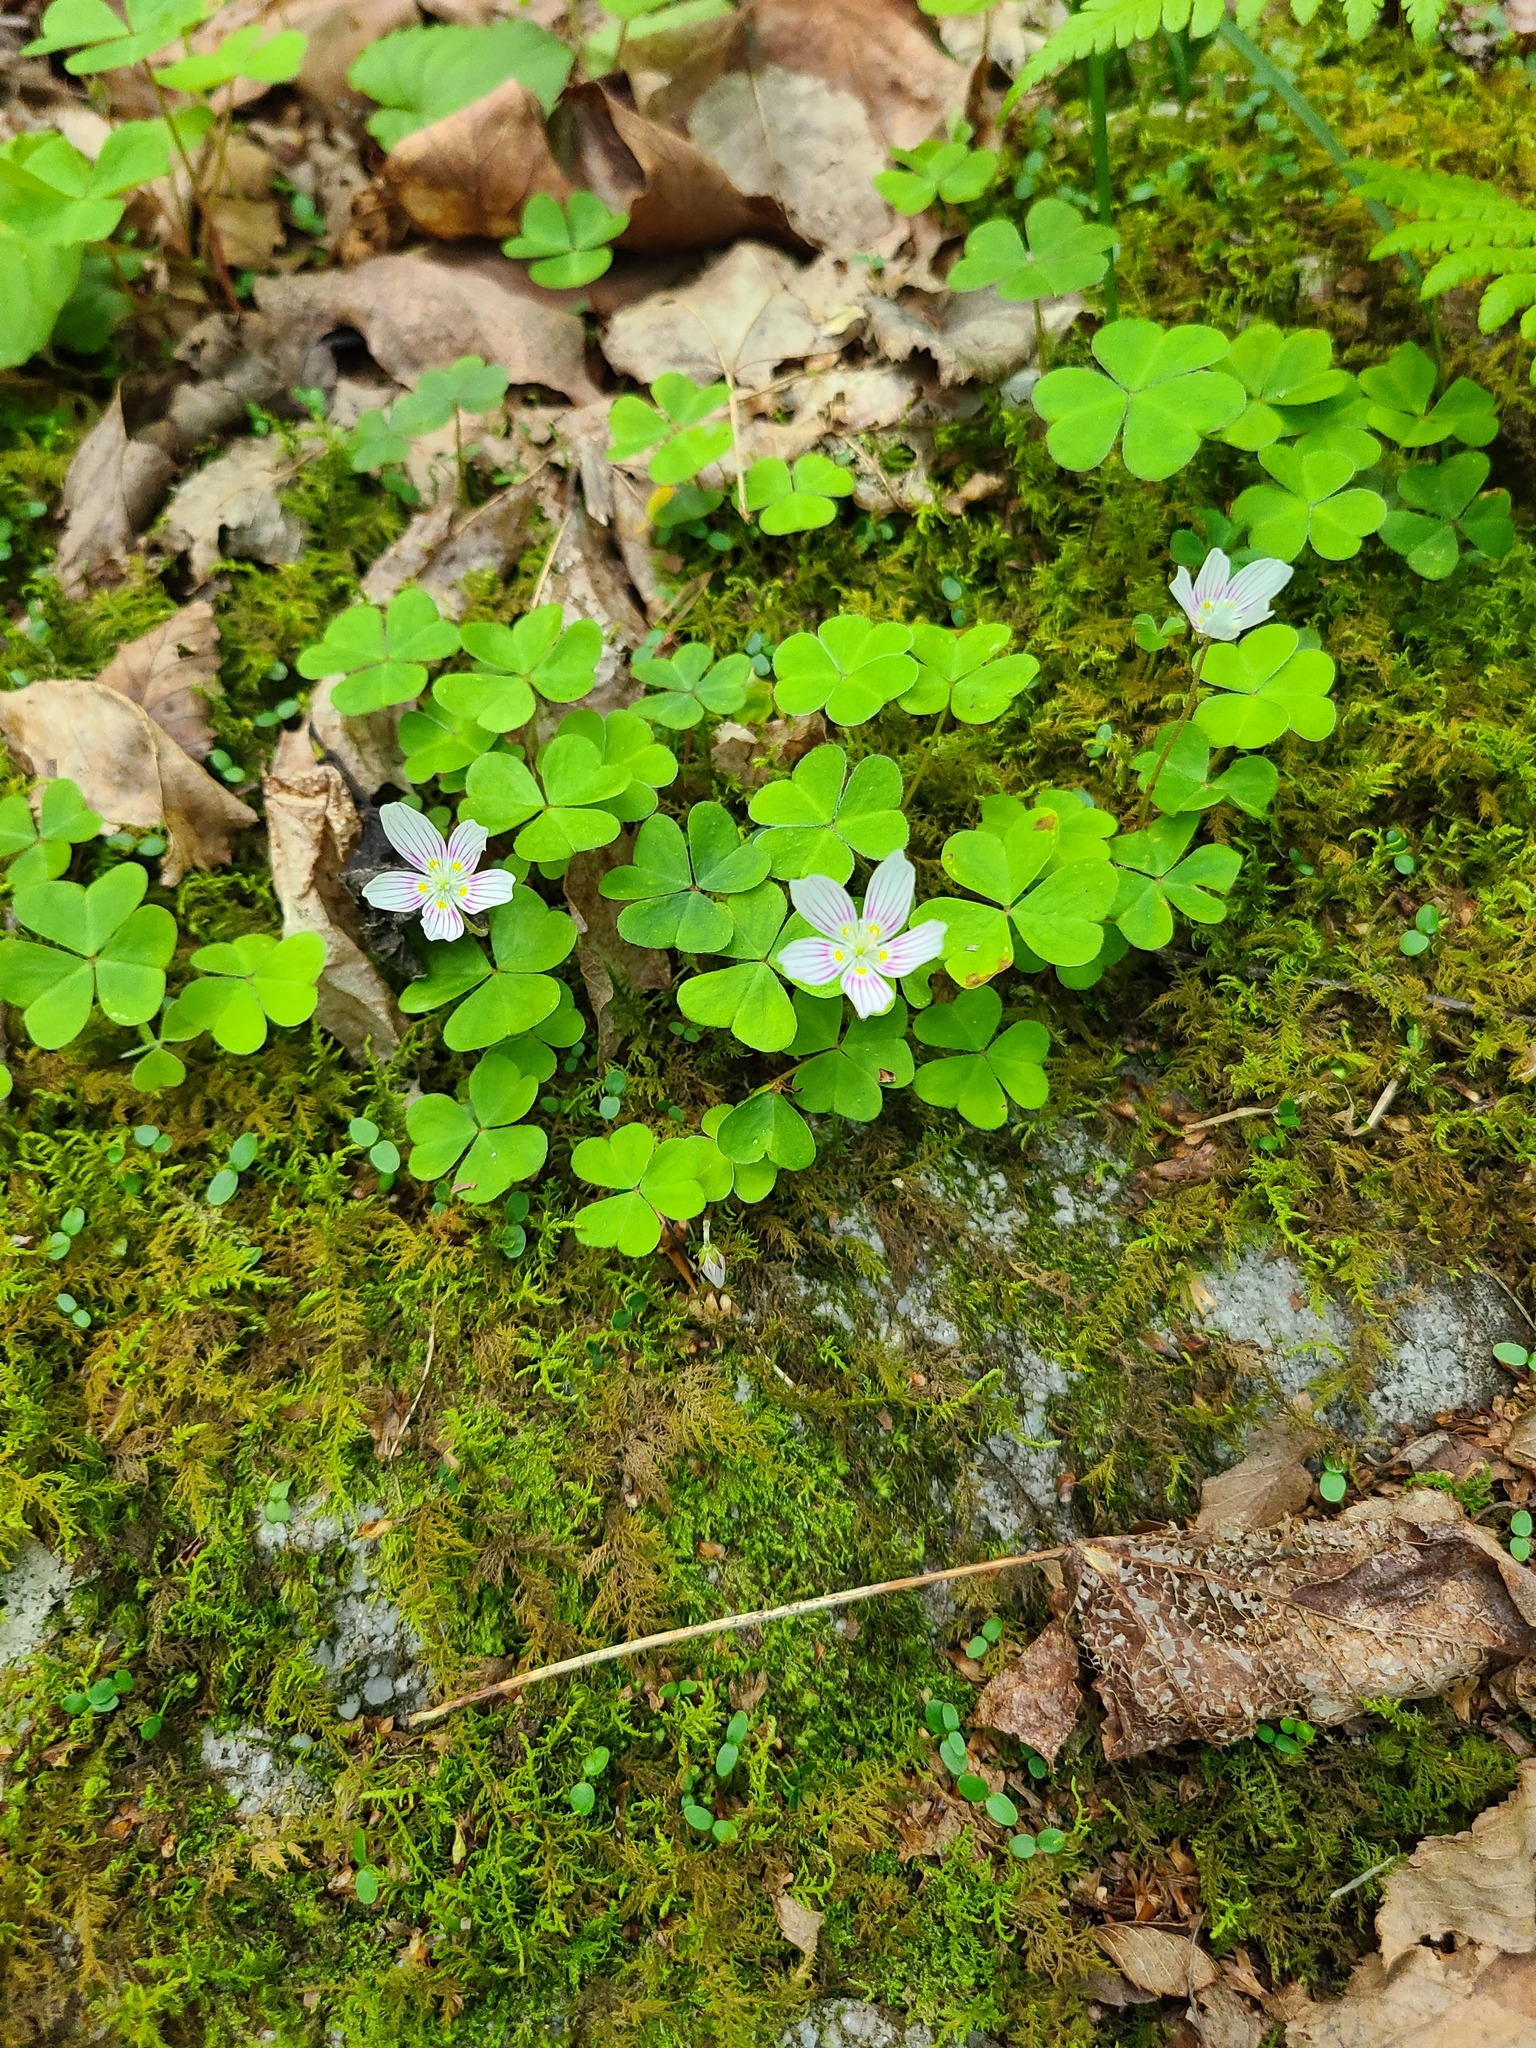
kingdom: Plantae
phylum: Tracheophyta
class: Magnoliopsida
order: Oxalidales
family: Oxalidaceae
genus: Oxalis
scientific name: Oxalis montana
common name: American wood-sorrel
